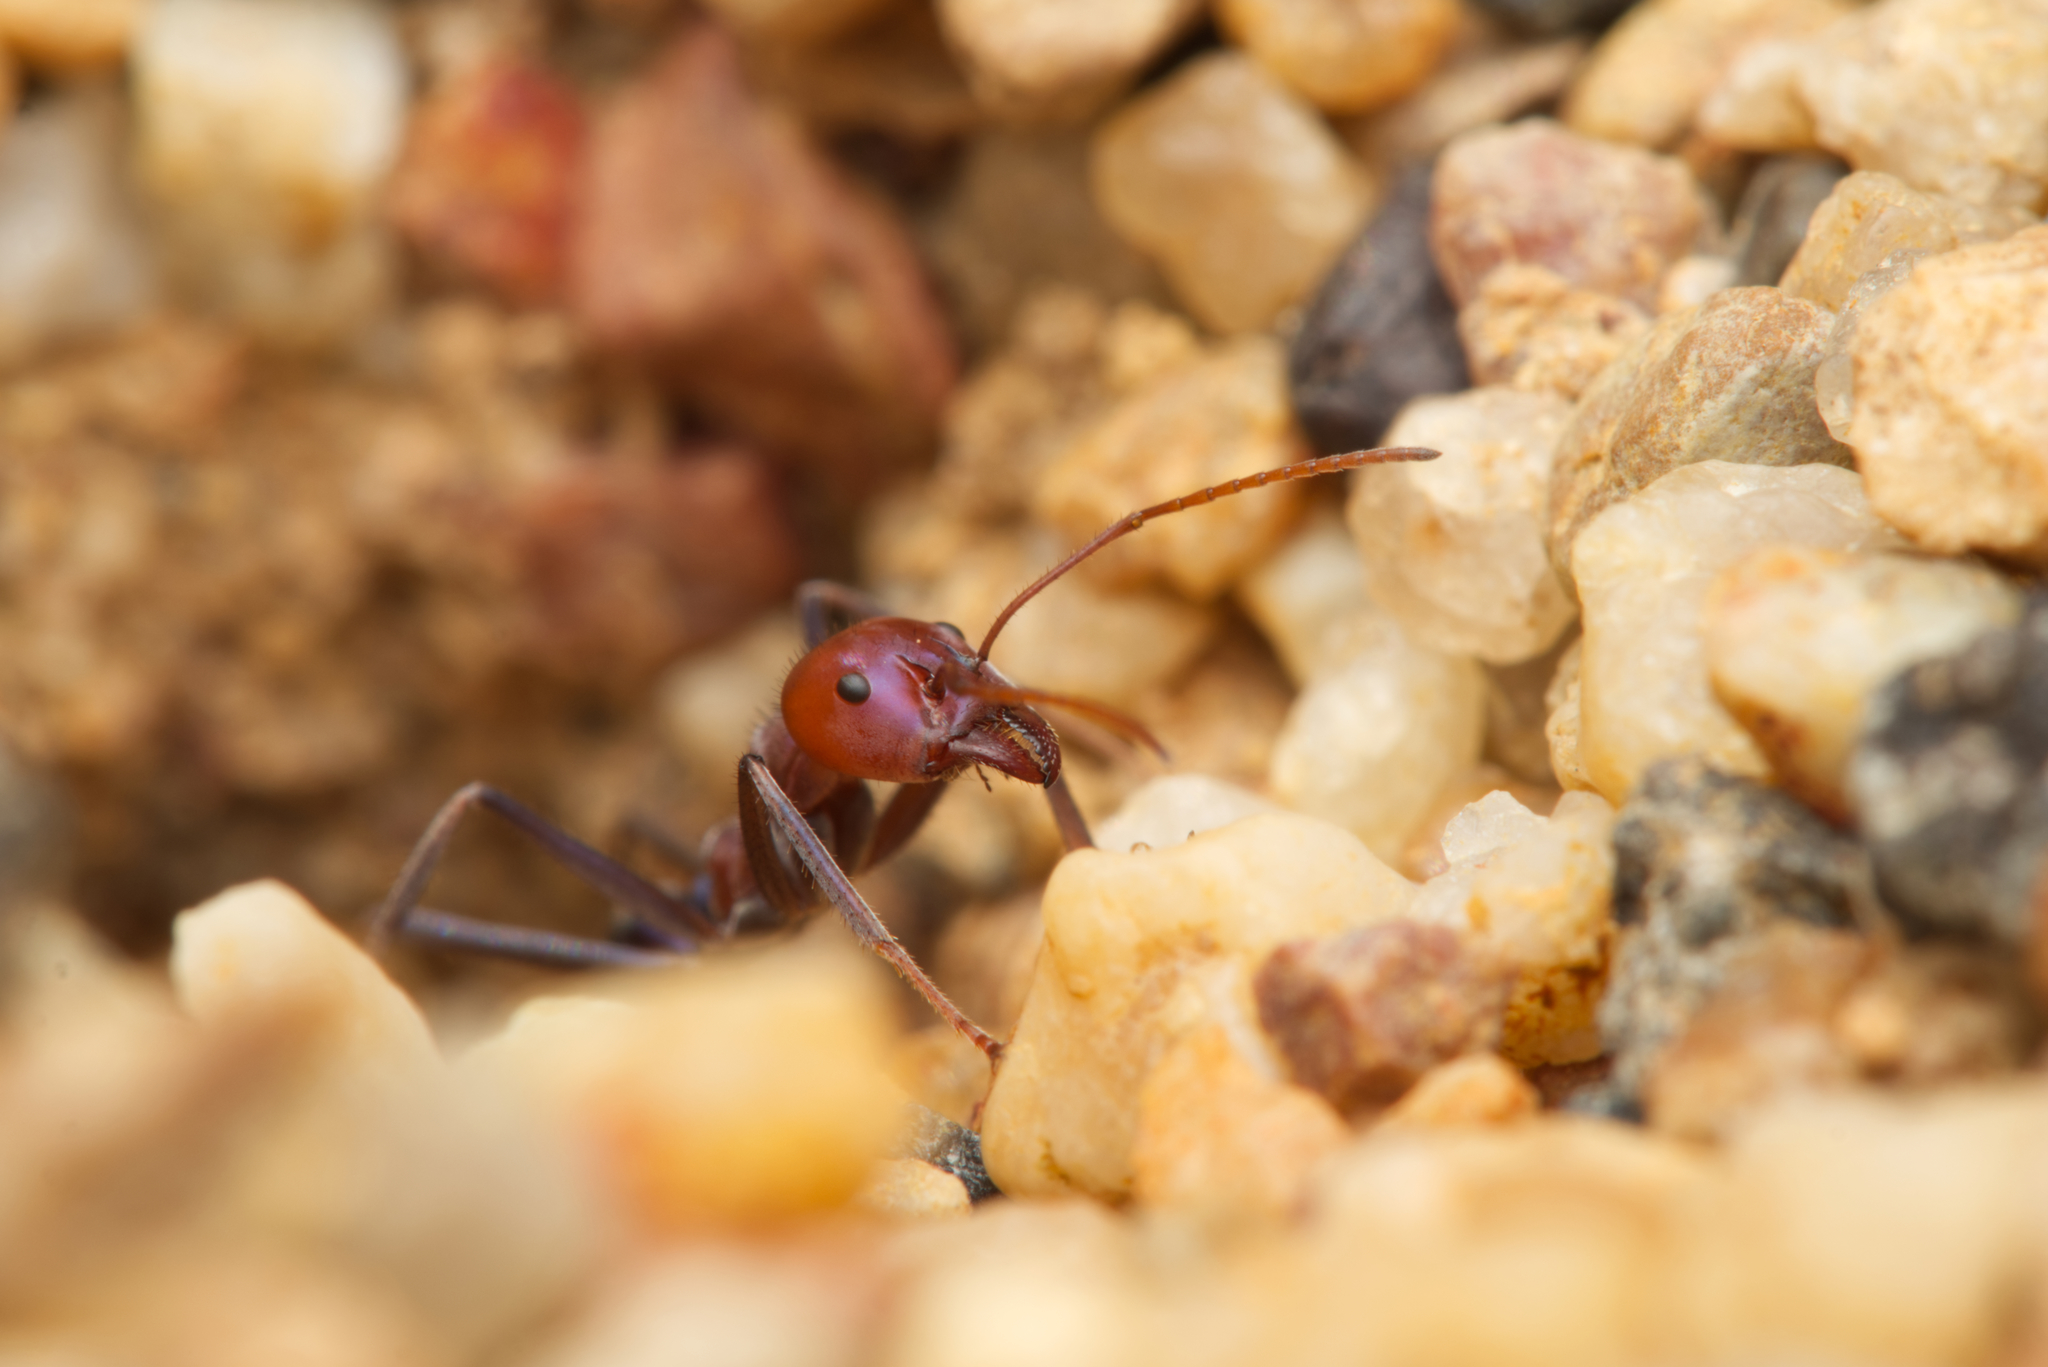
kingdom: Animalia
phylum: Arthropoda
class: Insecta
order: Hymenoptera
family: Formicidae
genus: Iridomyrmex
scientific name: Iridomyrmex purpureus
